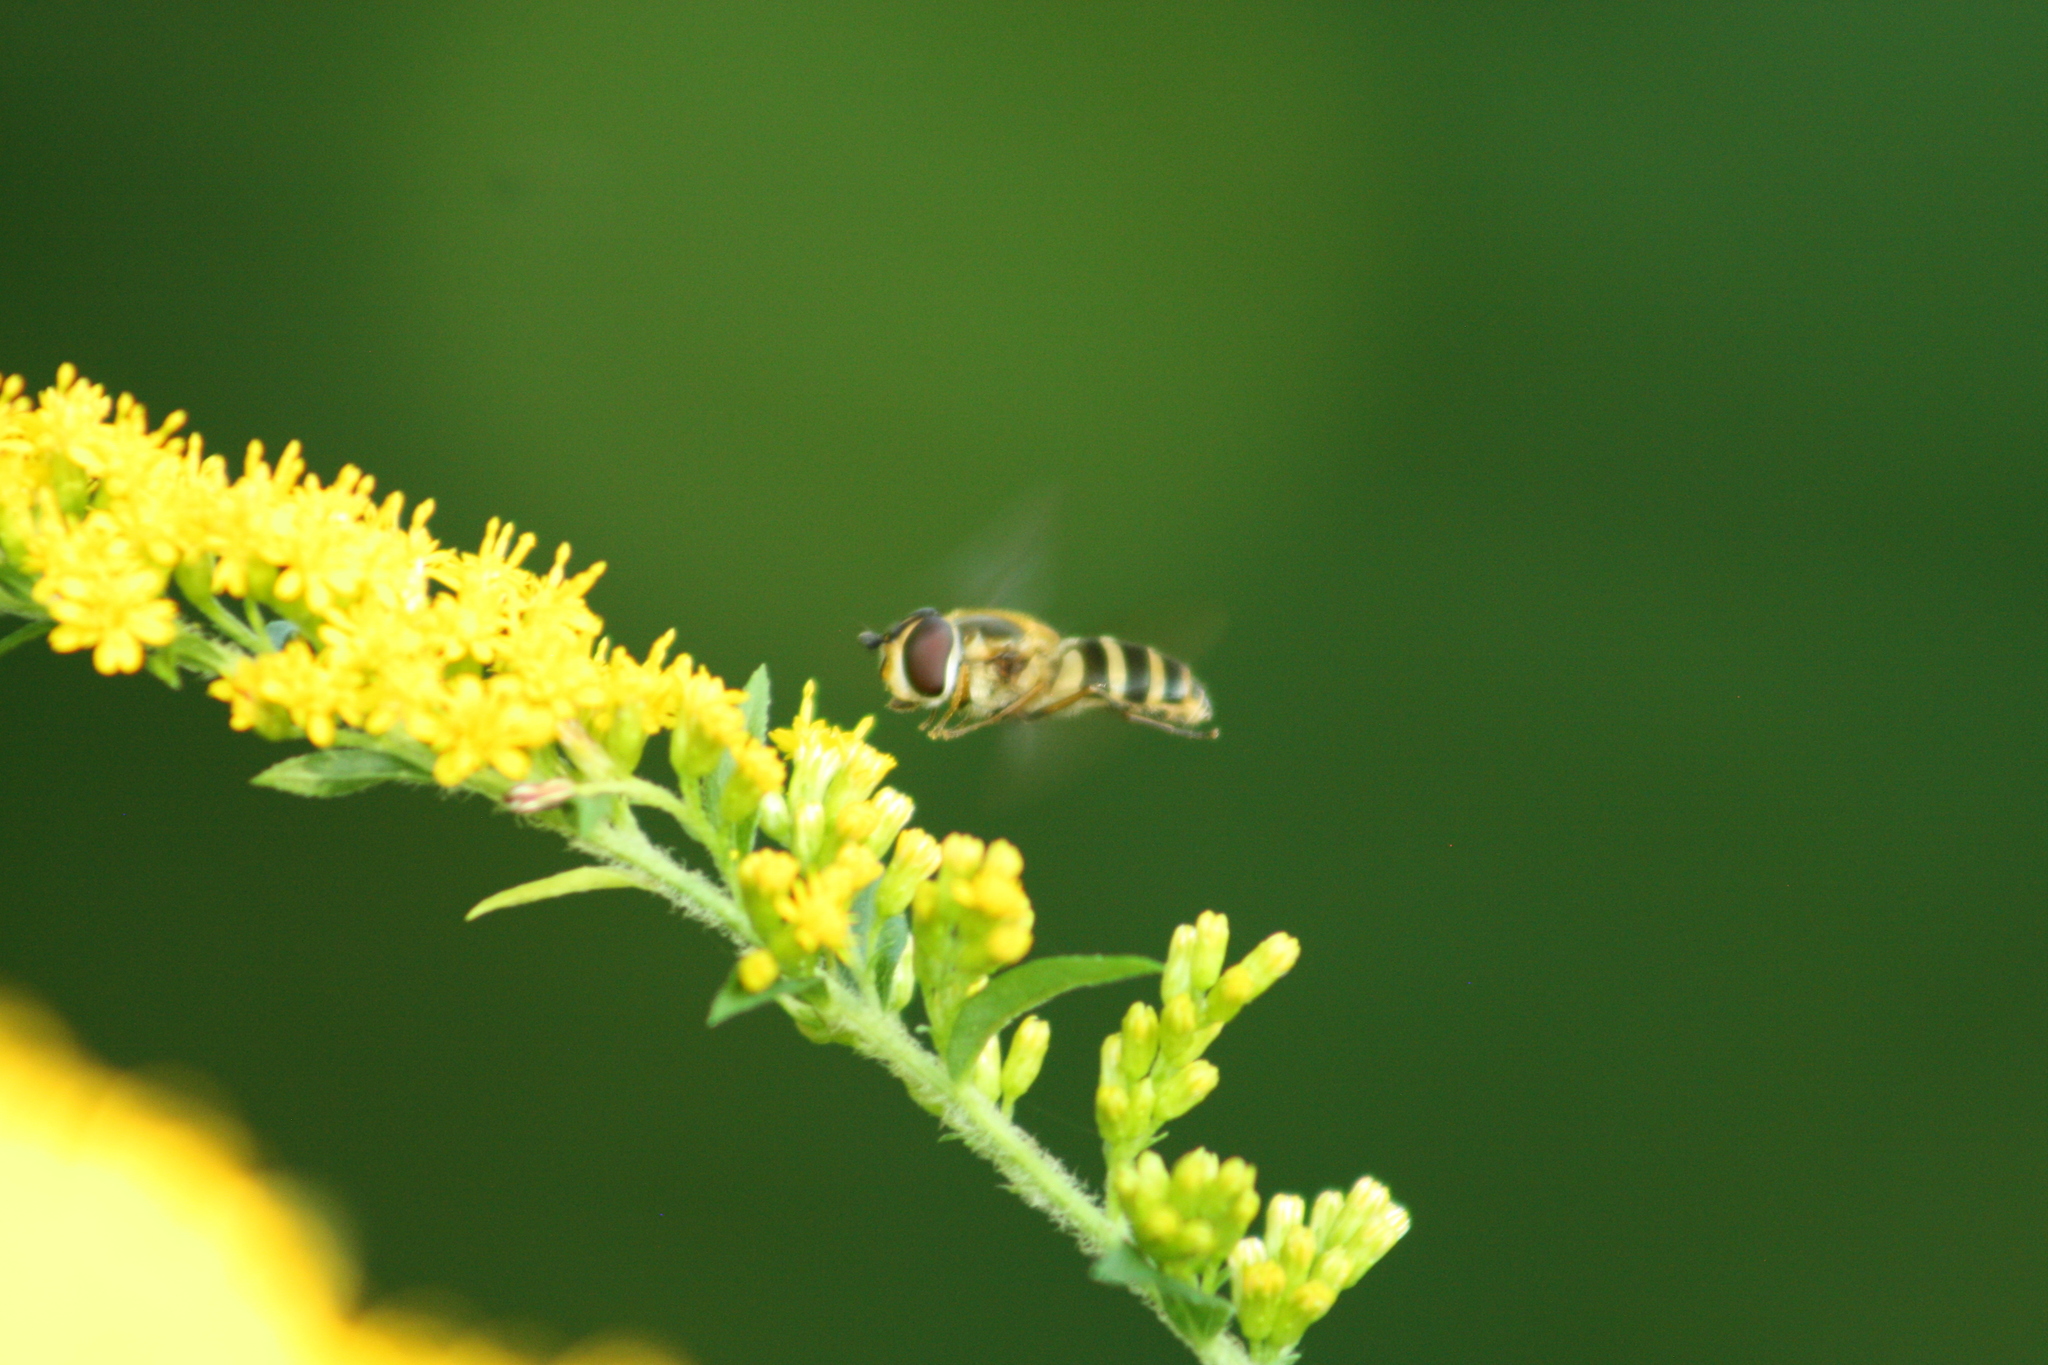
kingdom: Animalia
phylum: Arthropoda
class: Insecta
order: Diptera
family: Syrphidae
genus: Epistrophe
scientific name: Epistrophe grossulariae
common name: Black-horned smoothtail
